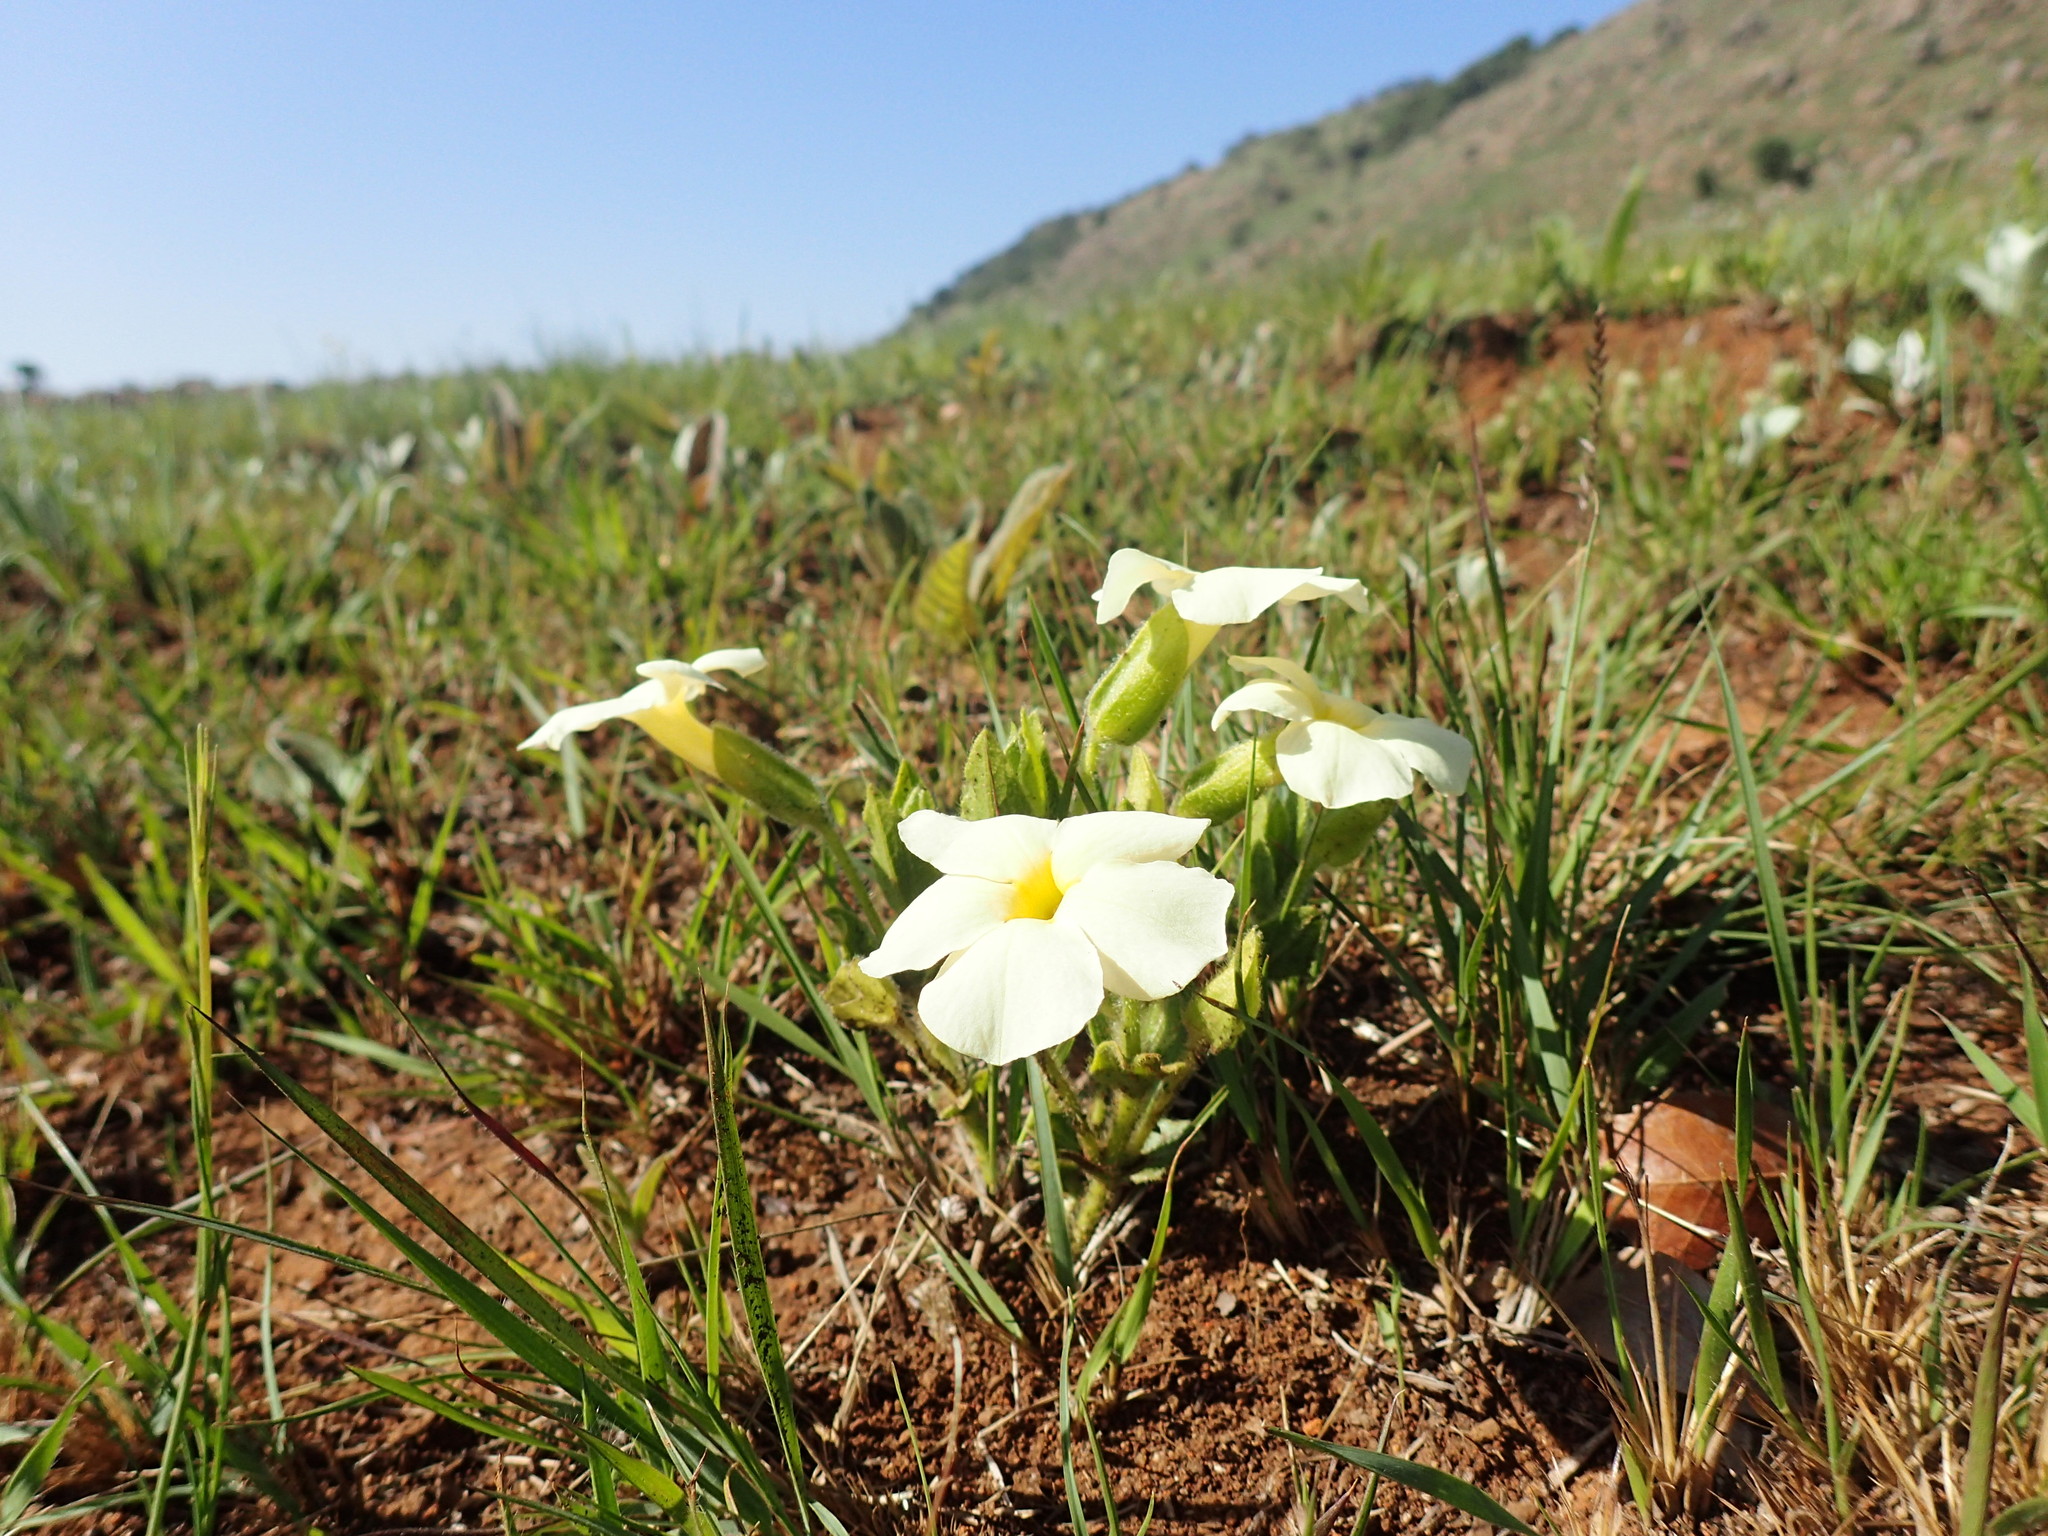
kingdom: Plantae
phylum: Tracheophyta
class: Magnoliopsida
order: Lamiales
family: Acanthaceae
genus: Thunbergia
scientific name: Thunbergia atriplicifolia
